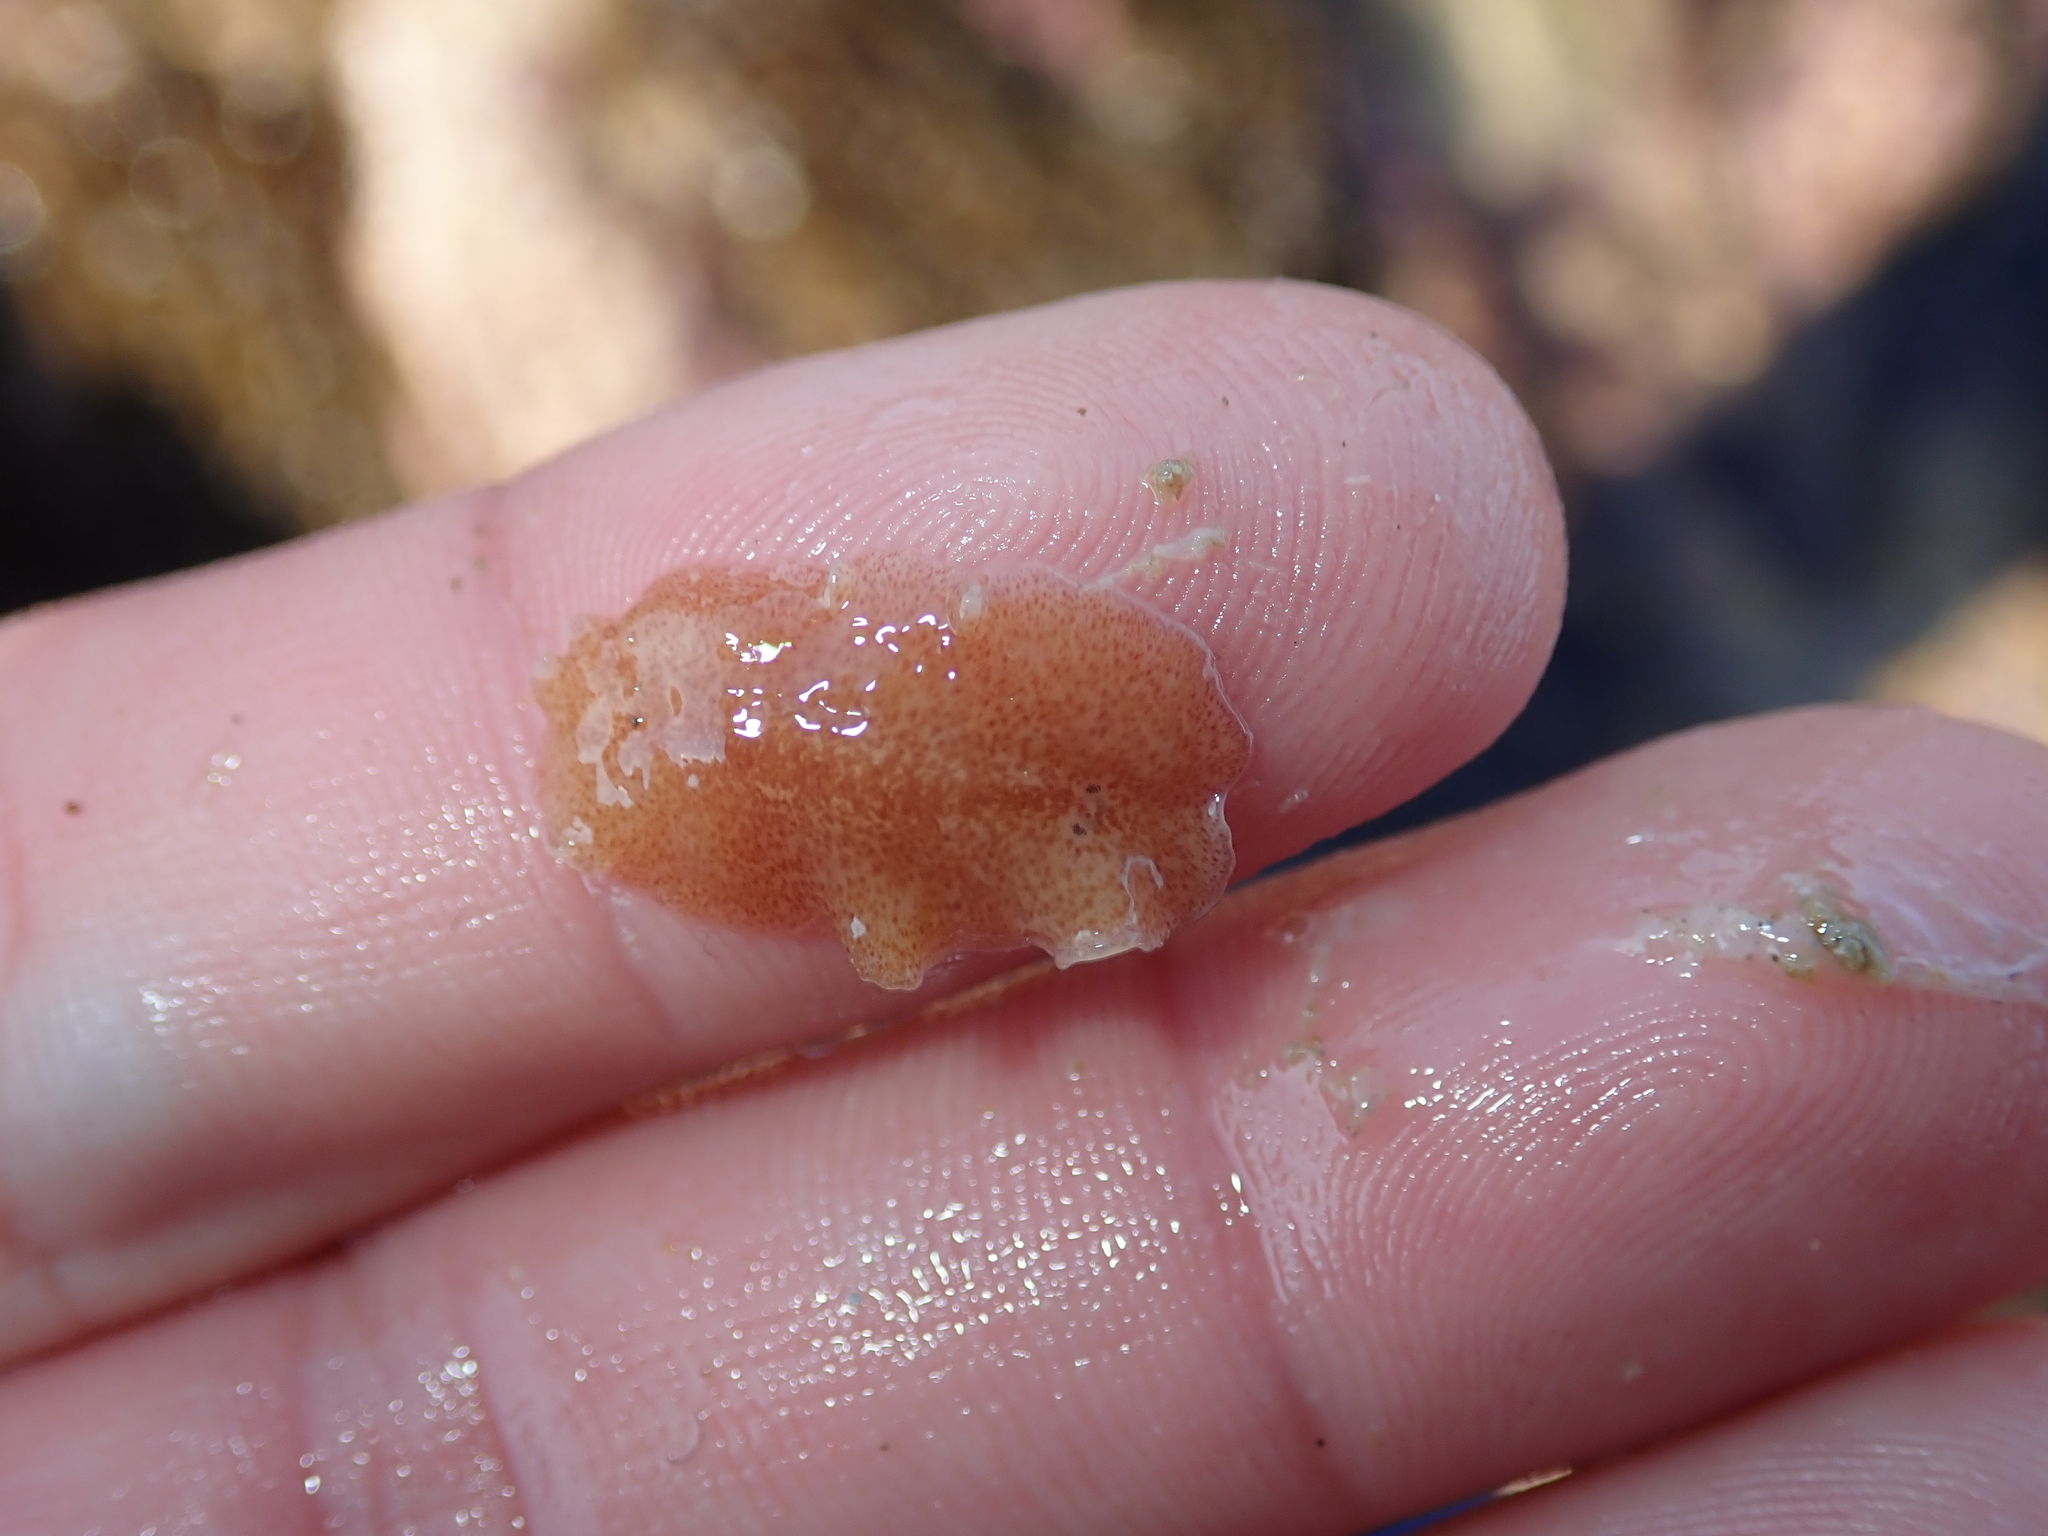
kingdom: Animalia
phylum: Platyhelminthes
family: Discocelidae
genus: Discocelis
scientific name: Discocelis tigrina
